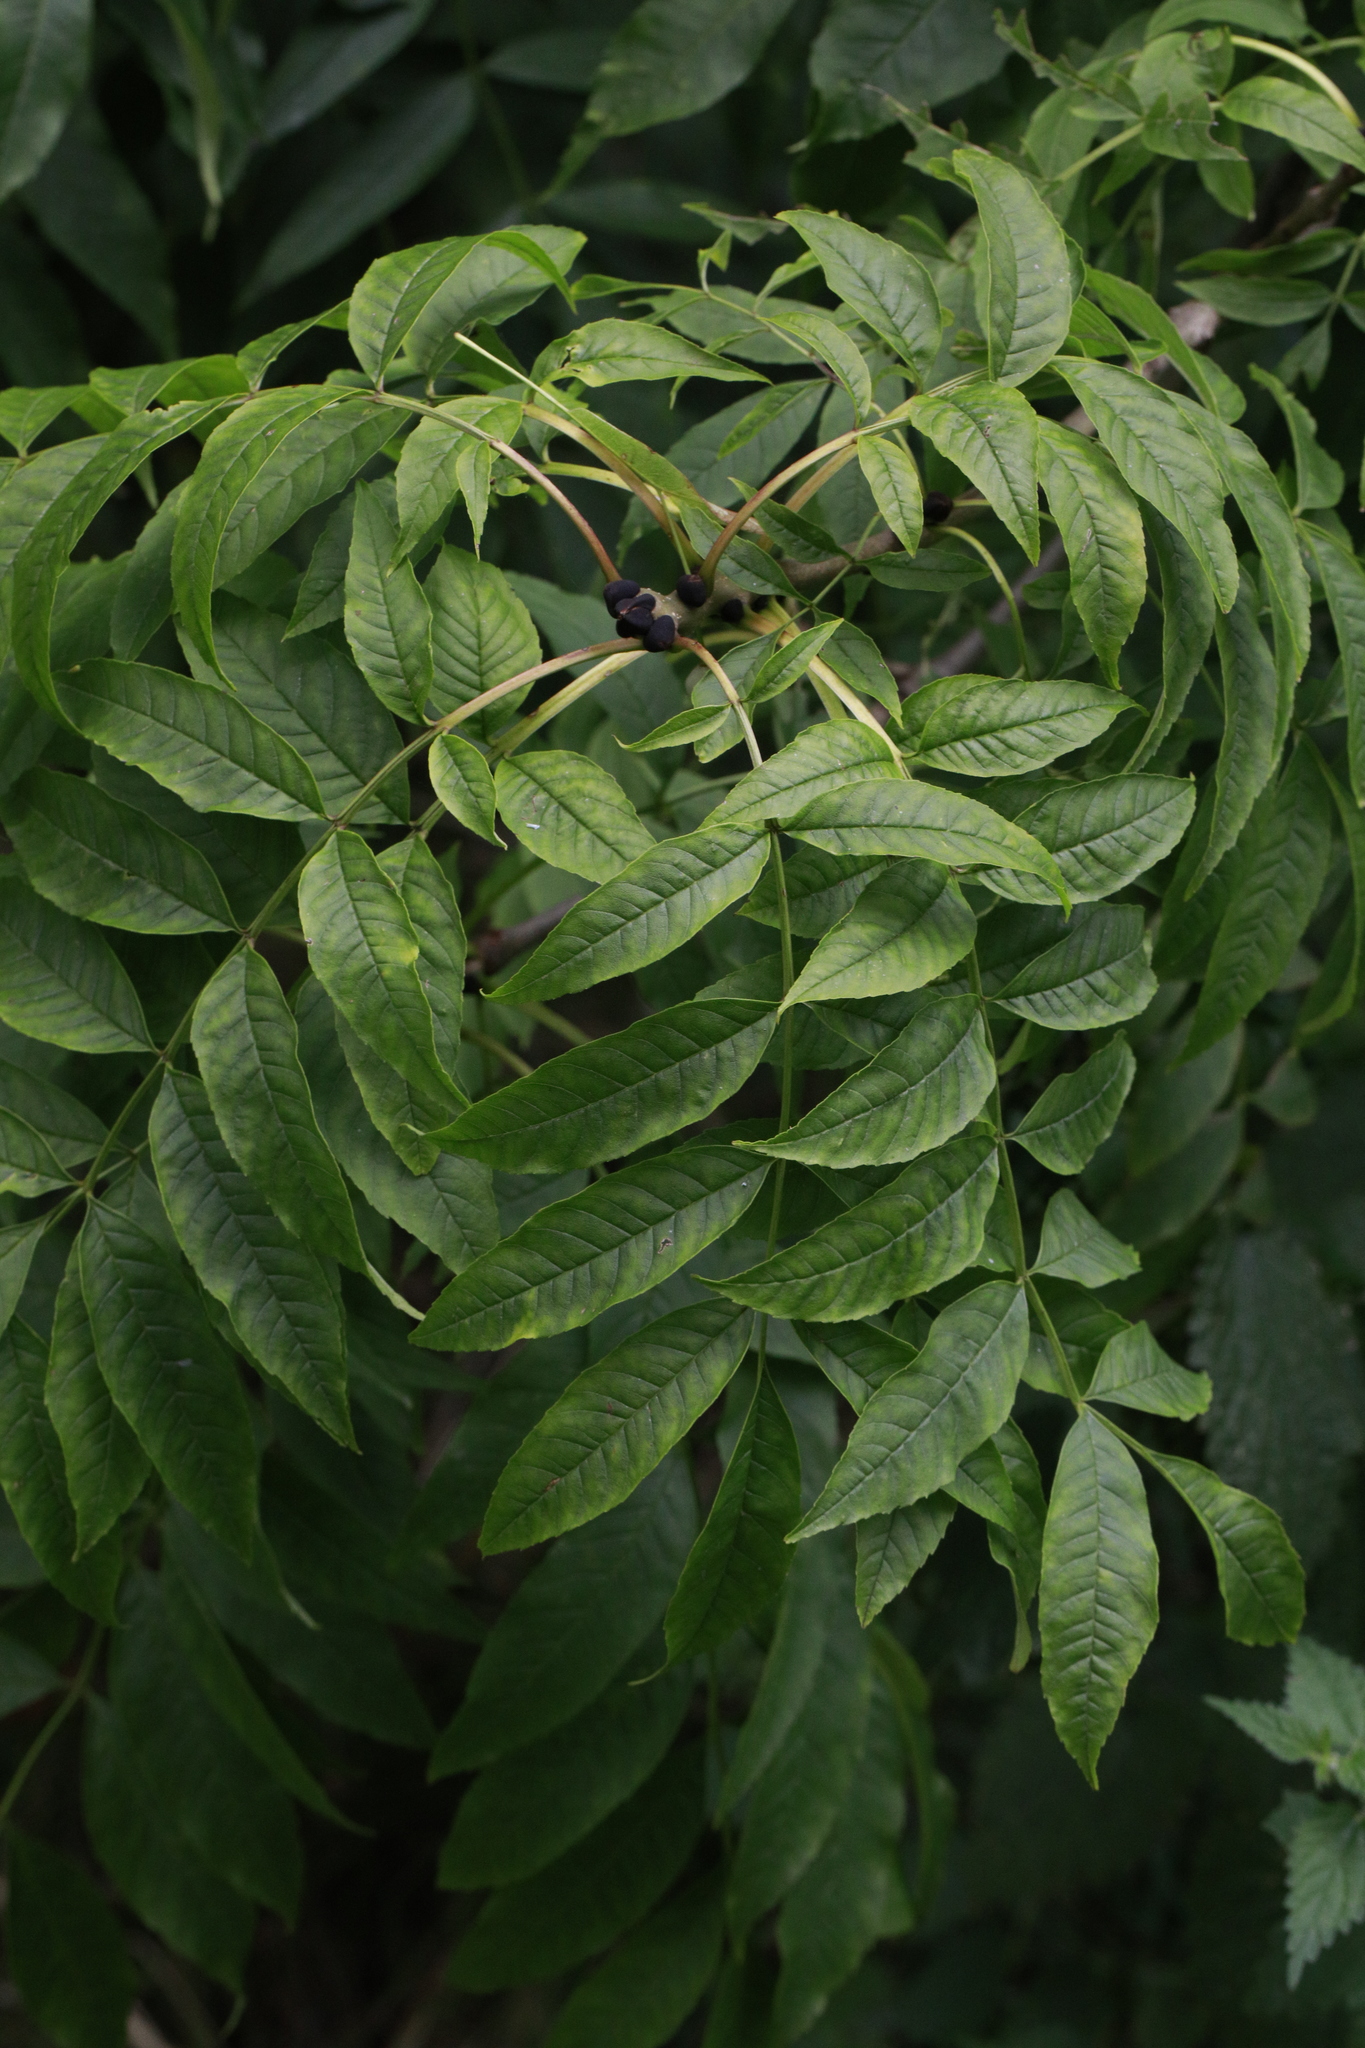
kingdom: Plantae
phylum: Tracheophyta
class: Magnoliopsida
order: Lamiales
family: Oleaceae
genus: Fraxinus
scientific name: Fraxinus excelsior
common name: European ash
